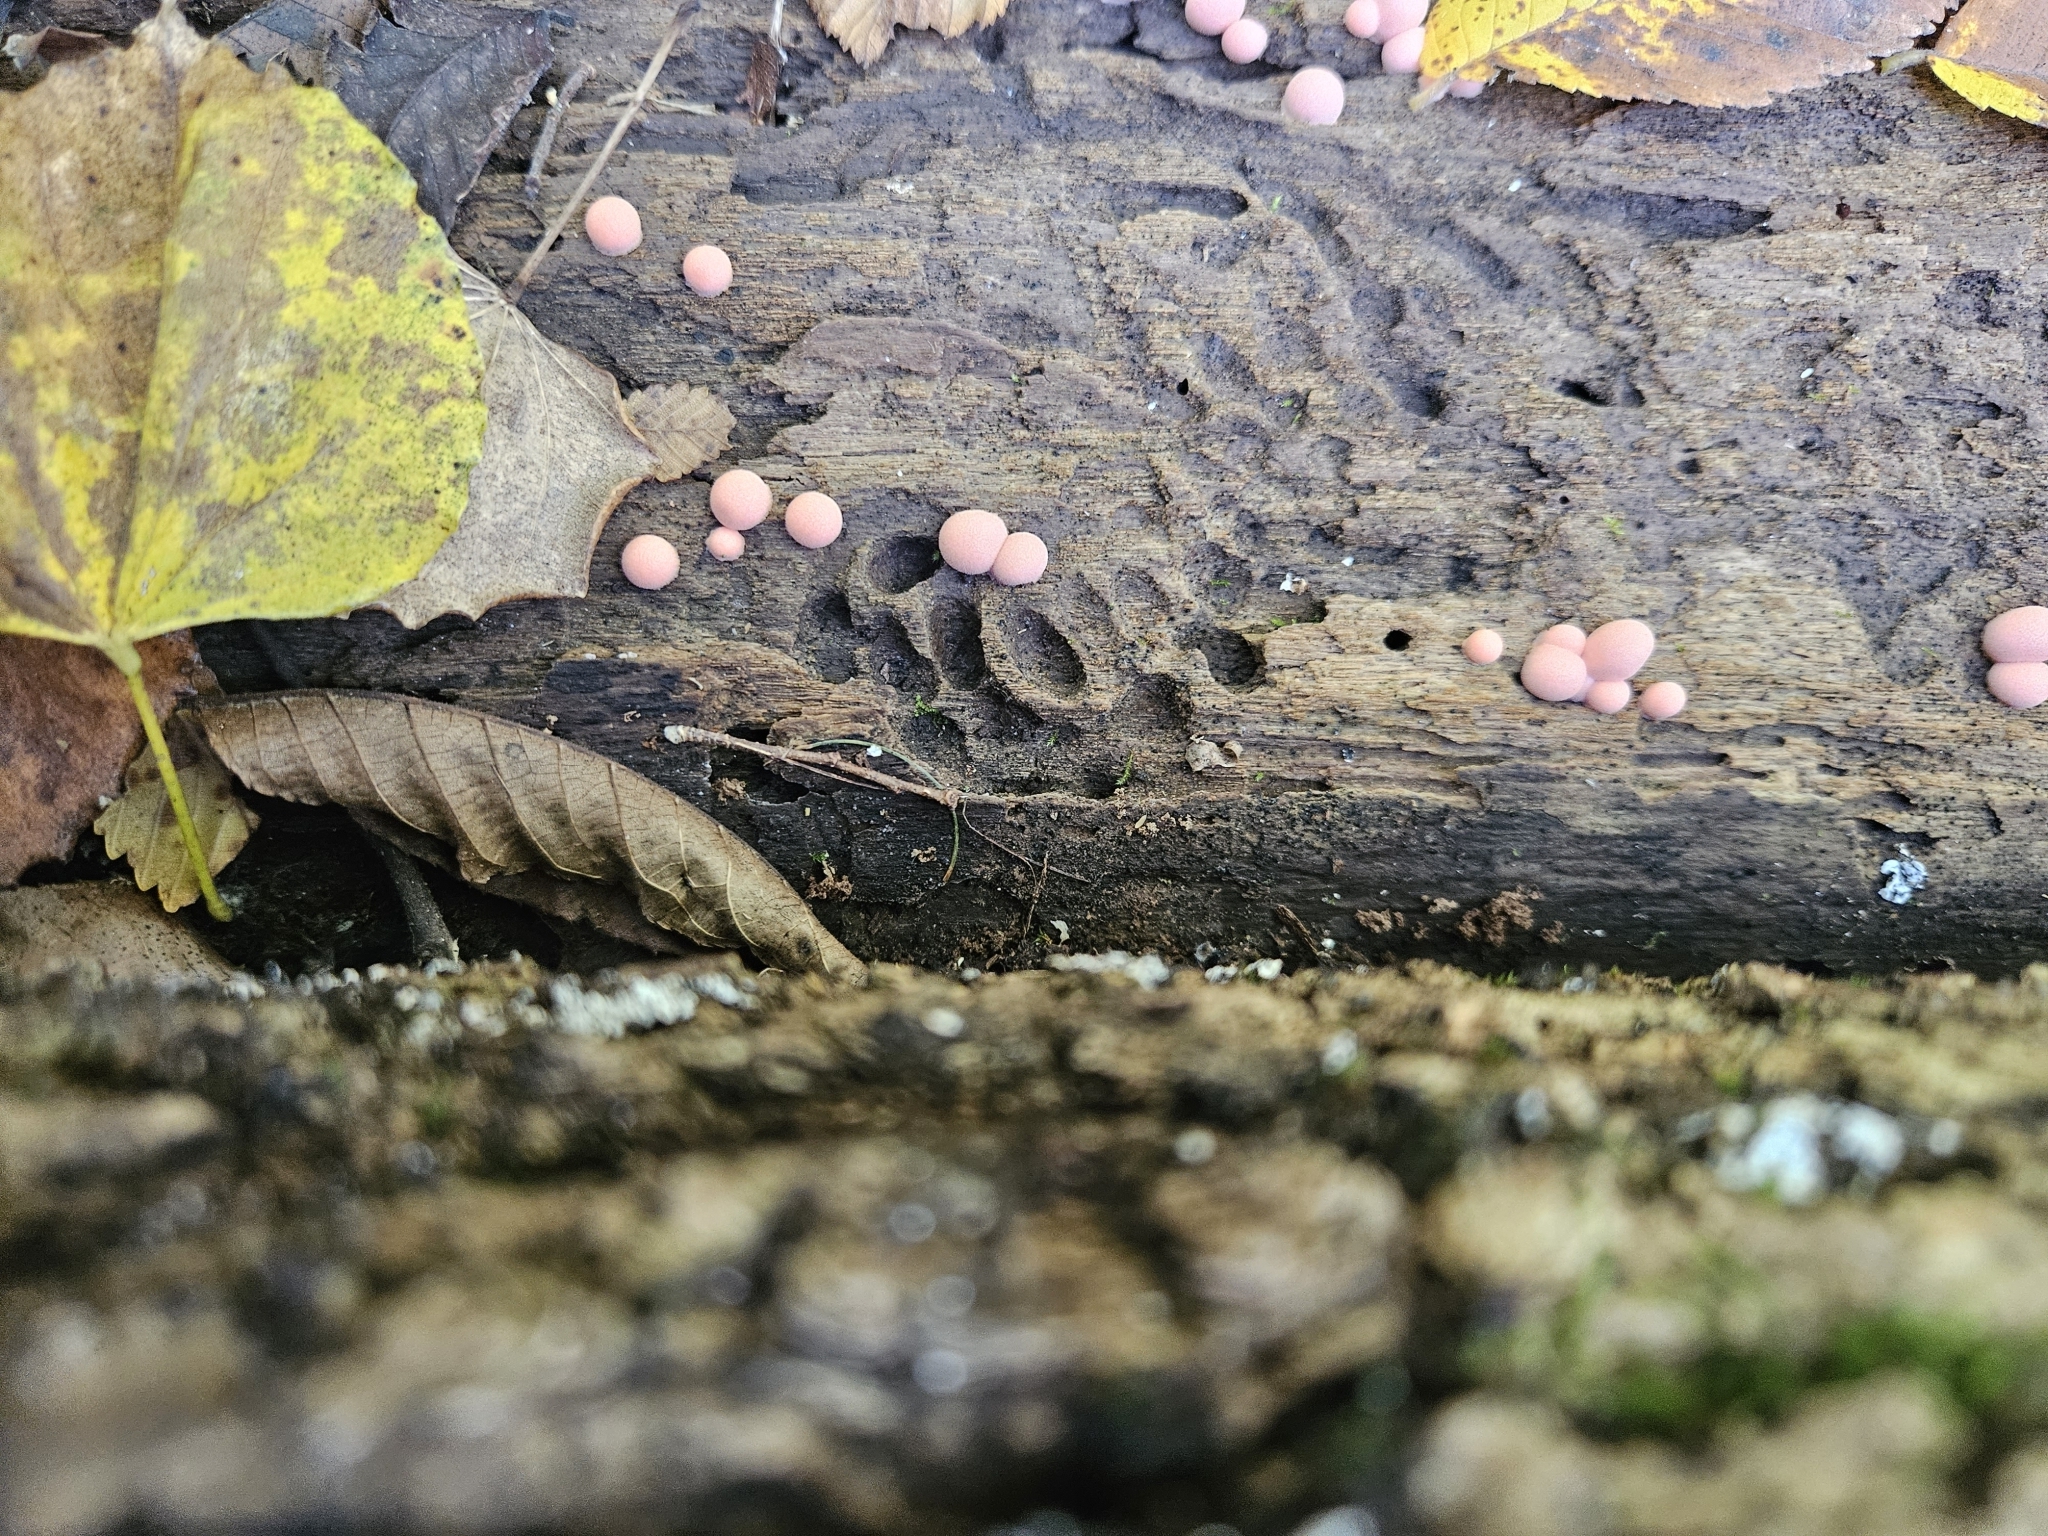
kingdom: Protozoa
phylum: Mycetozoa
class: Myxomycetes
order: Cribrariales
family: Tubiferaceae
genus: Lycogala
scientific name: Lycogala epidendrum
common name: Wolf's milk
